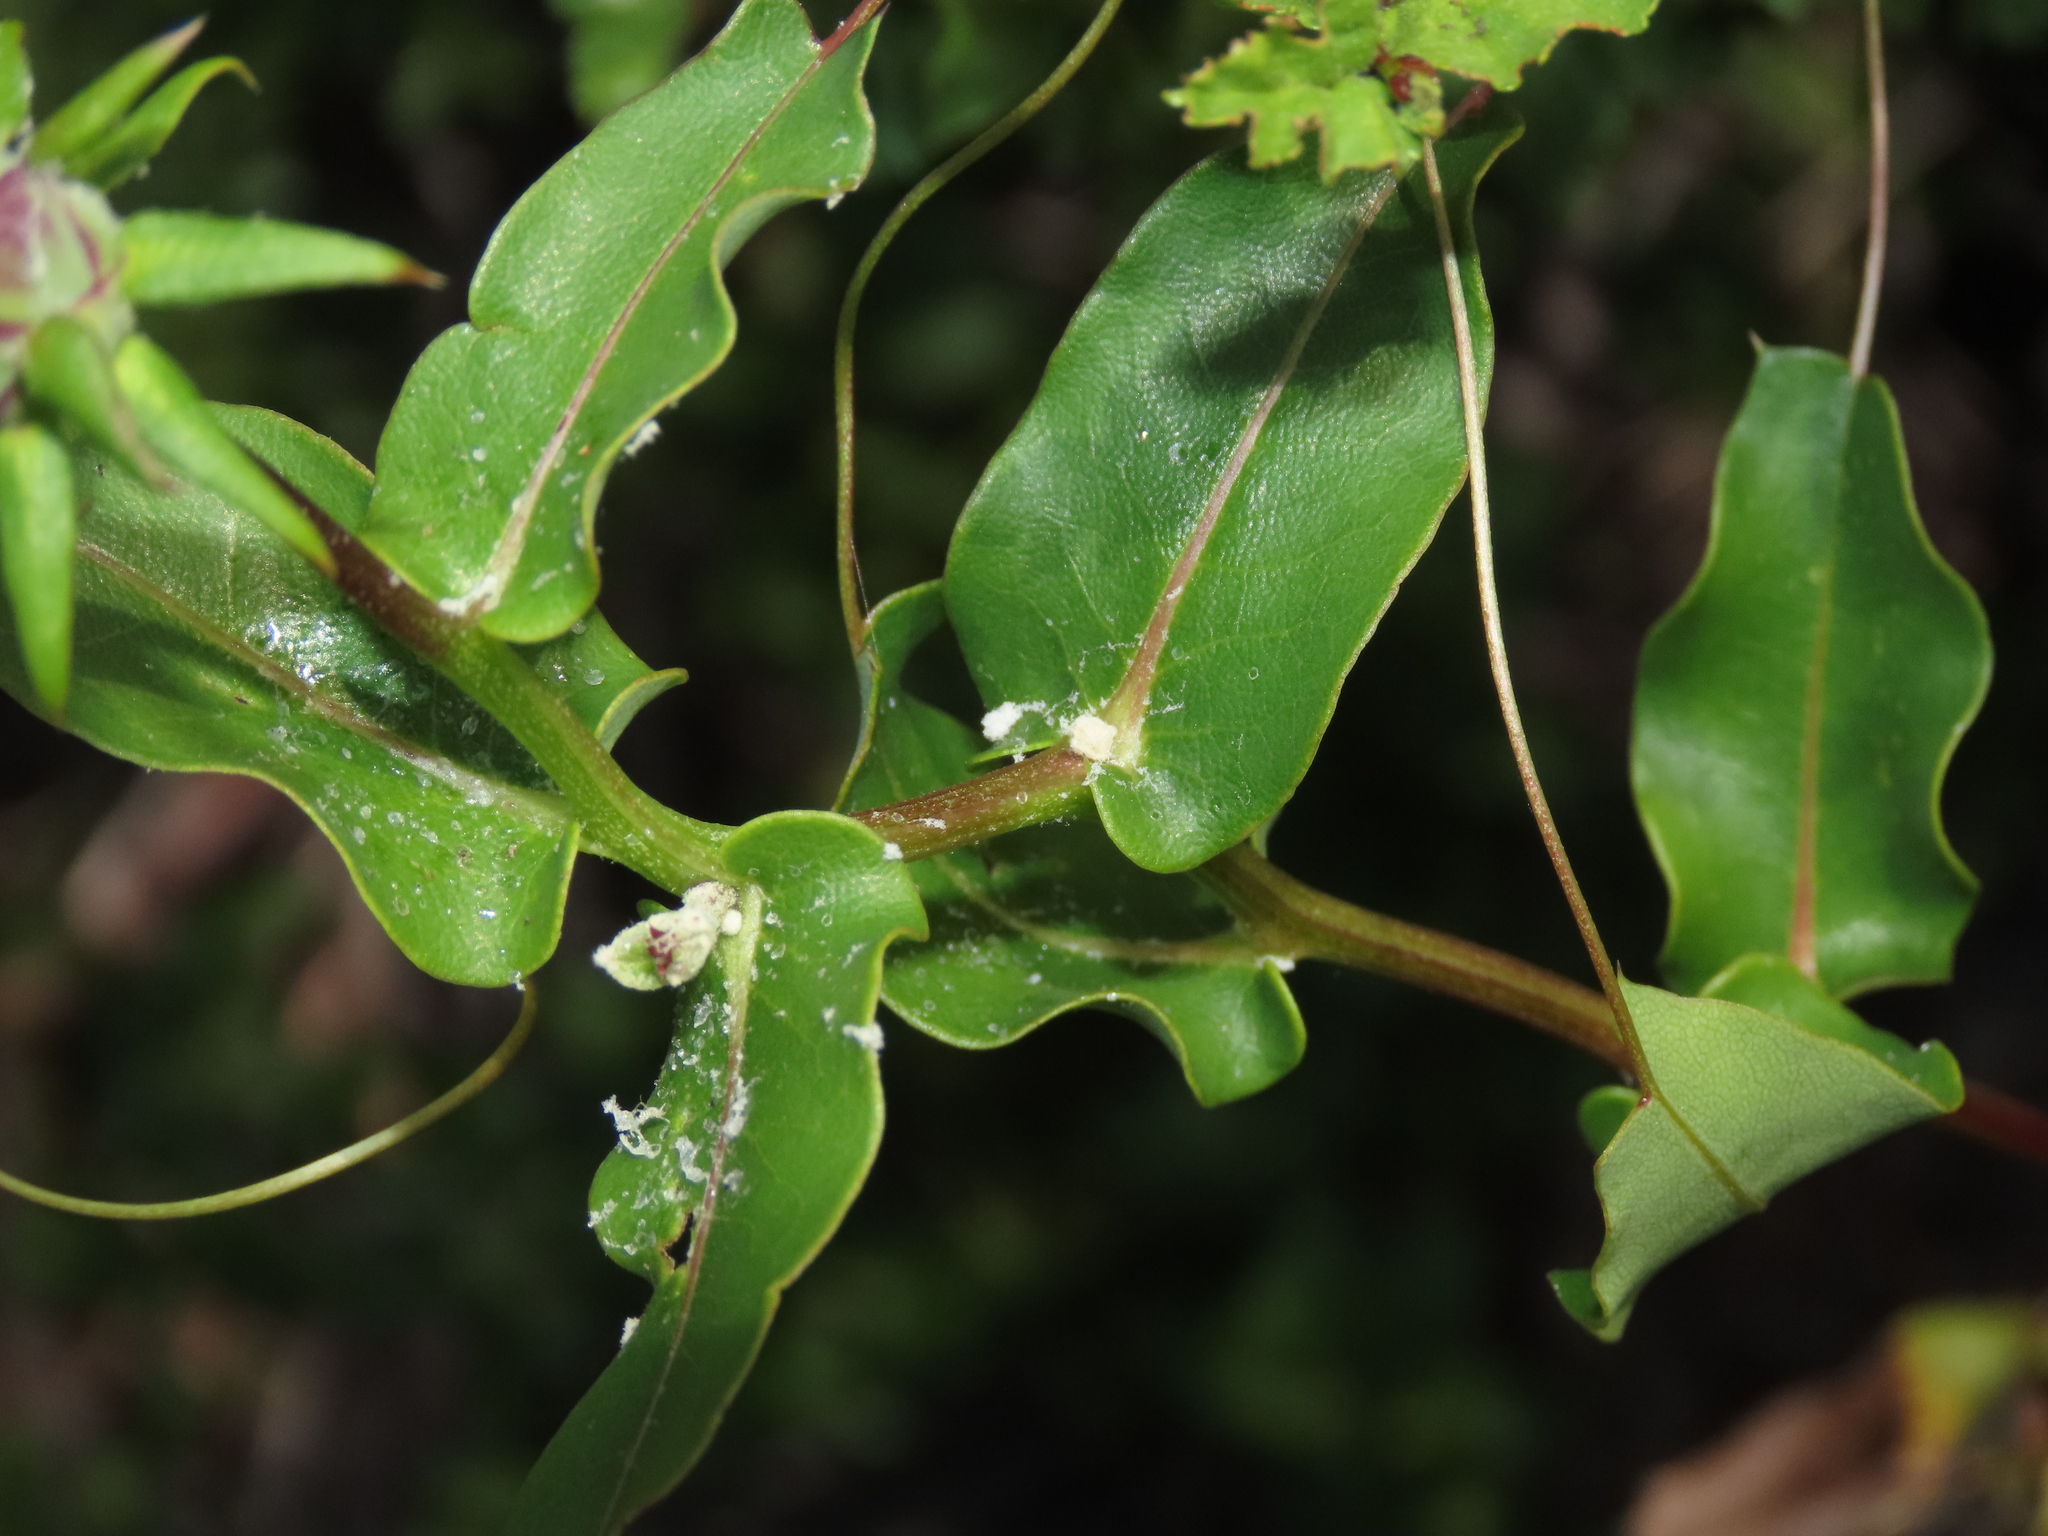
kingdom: Plantae
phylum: Tracheophyta
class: Magnoliopsida
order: Asterales
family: Asteraceae
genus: Mutisia
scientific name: Mutisia spinosa
